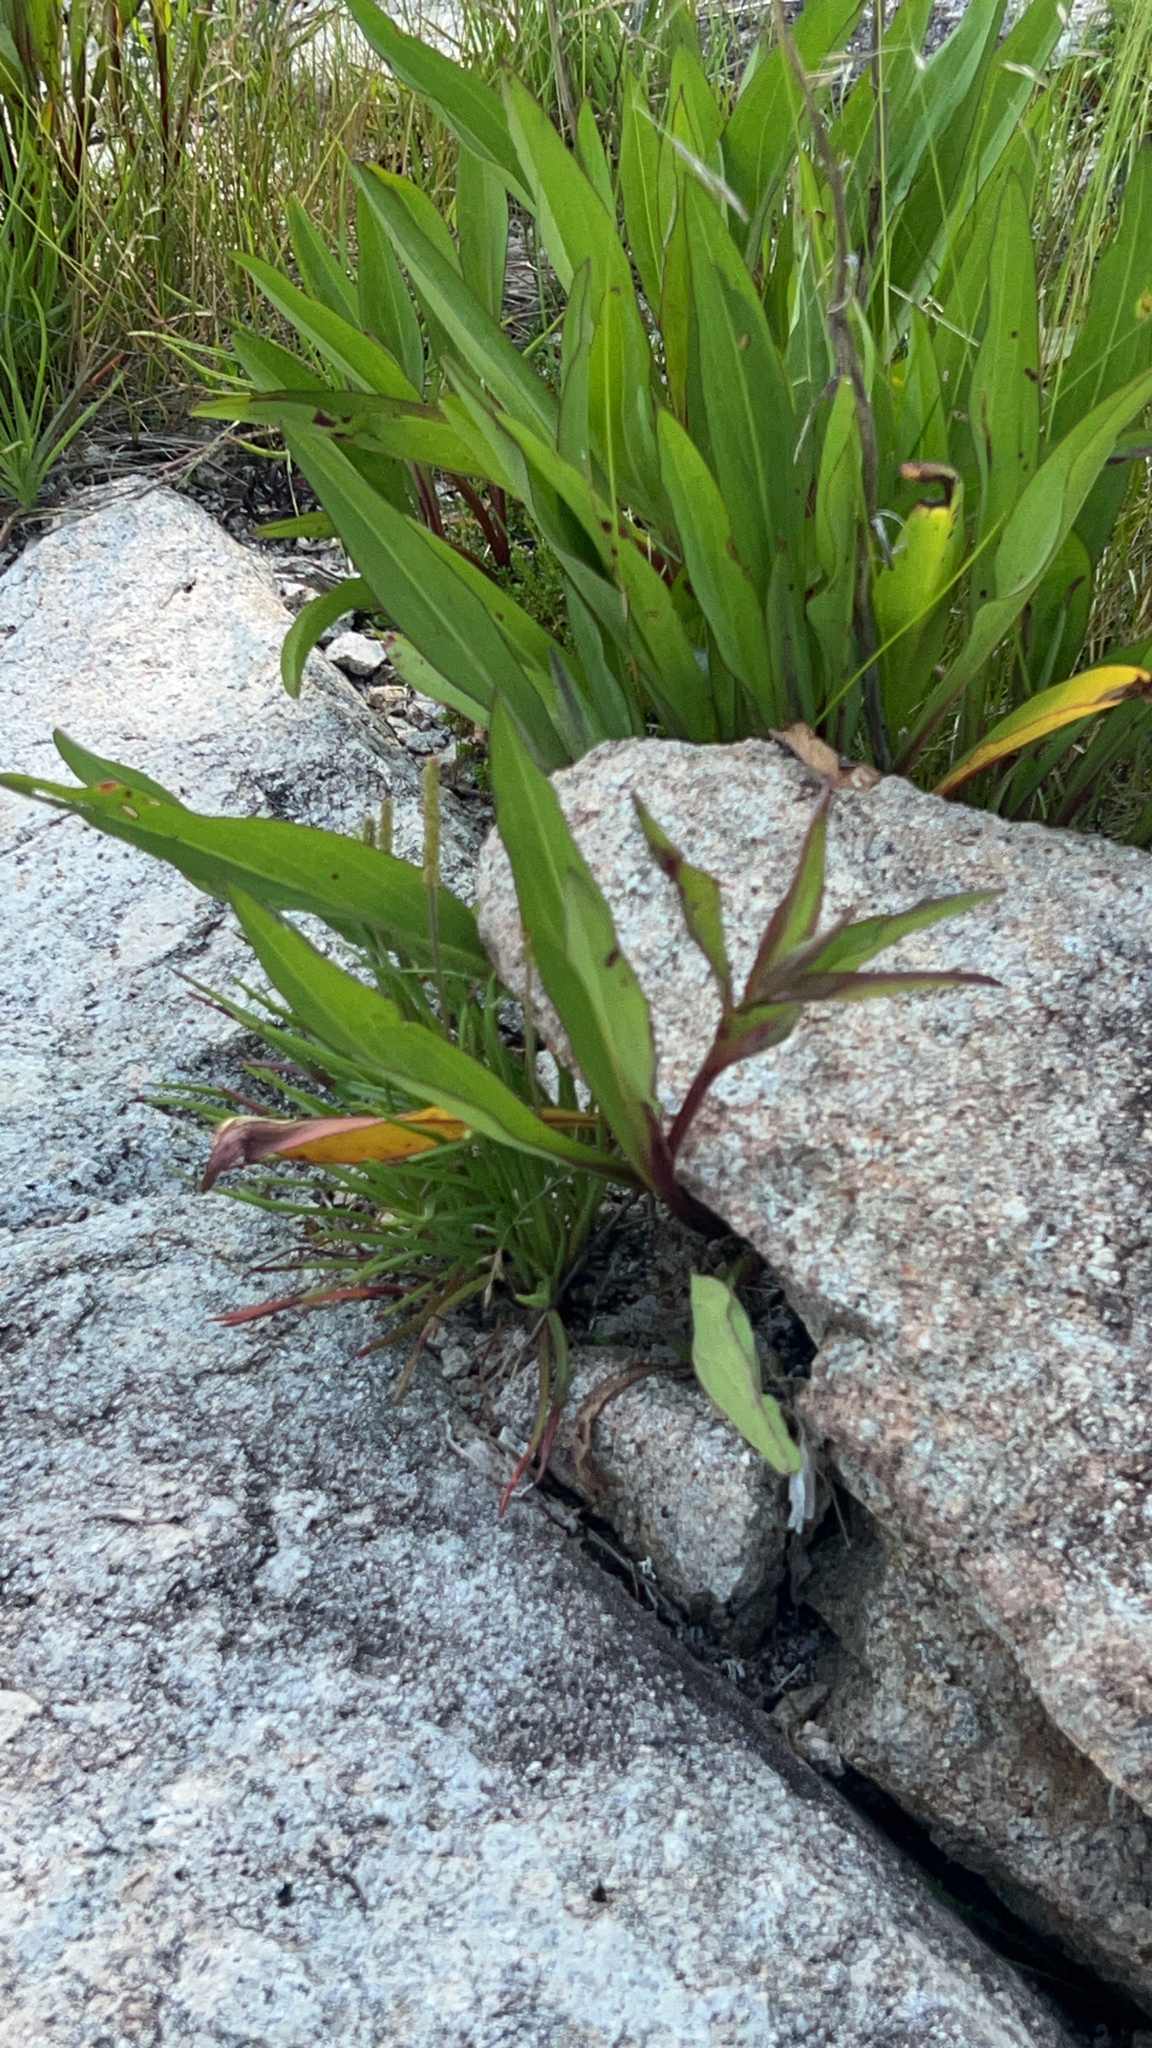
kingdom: Plantae
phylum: Tracheophyta
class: Magnoliopsida
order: Asterales
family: Asteraceae
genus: Solidago
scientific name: Solidago sempervirens
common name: Salt-marsh goldenrod
